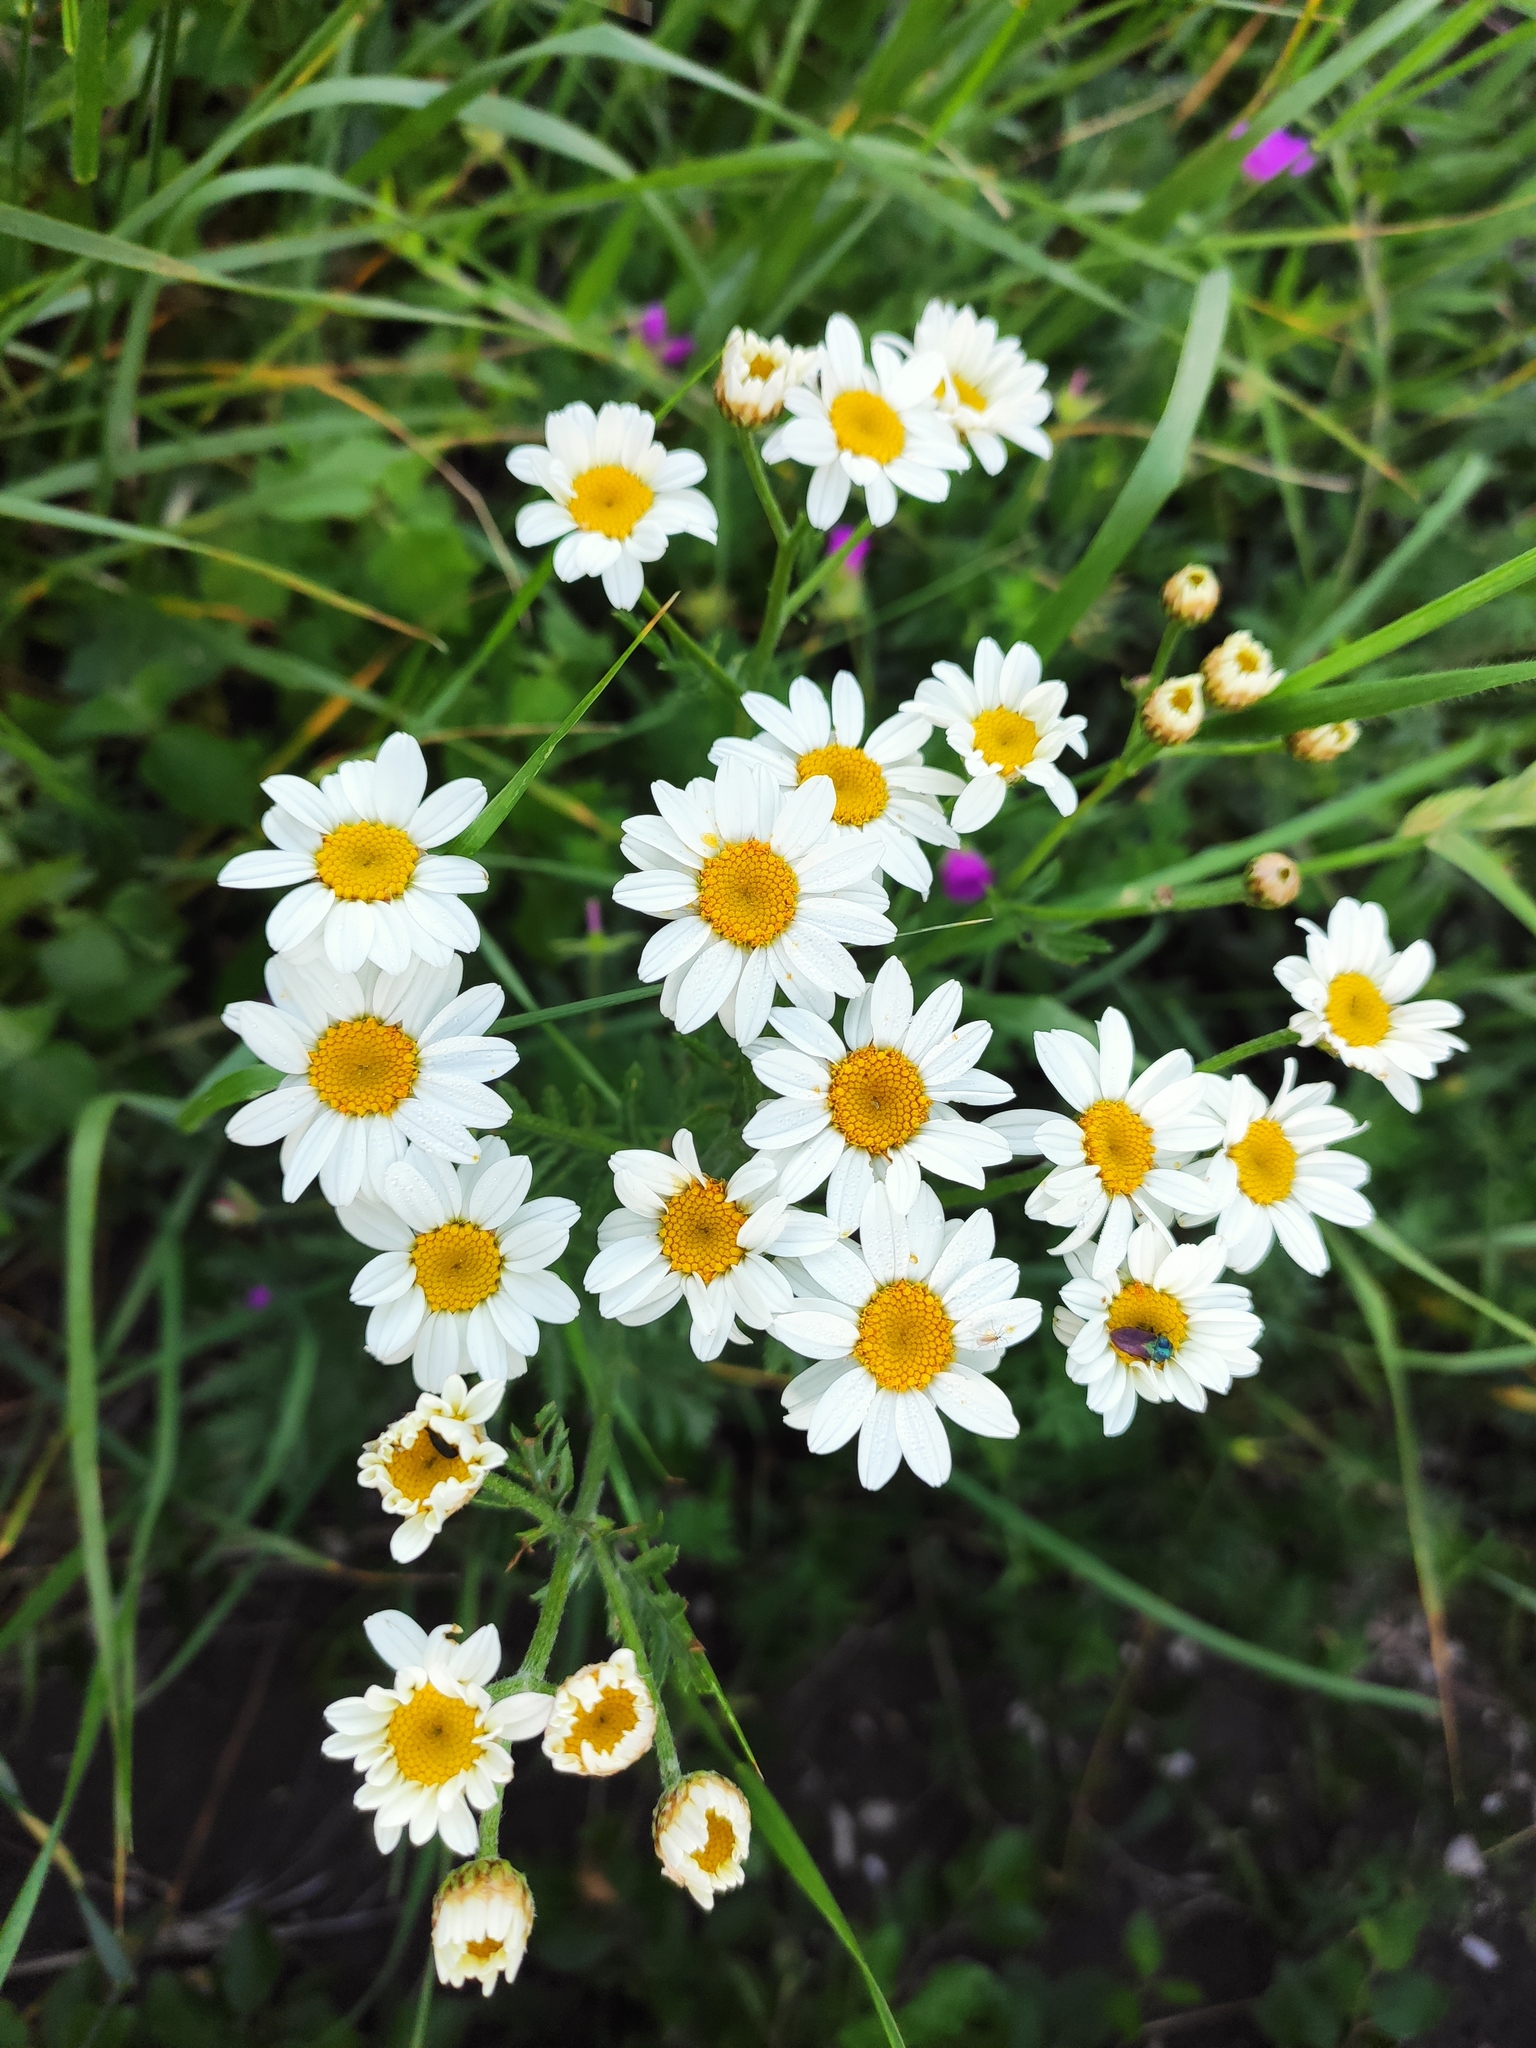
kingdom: Plantae
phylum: Tracheophyta
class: Magnoliopsida
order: Asterales
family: Asteraceae
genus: Tanacetum
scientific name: Tanacetum corymbosum
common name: Scentless feverfew
